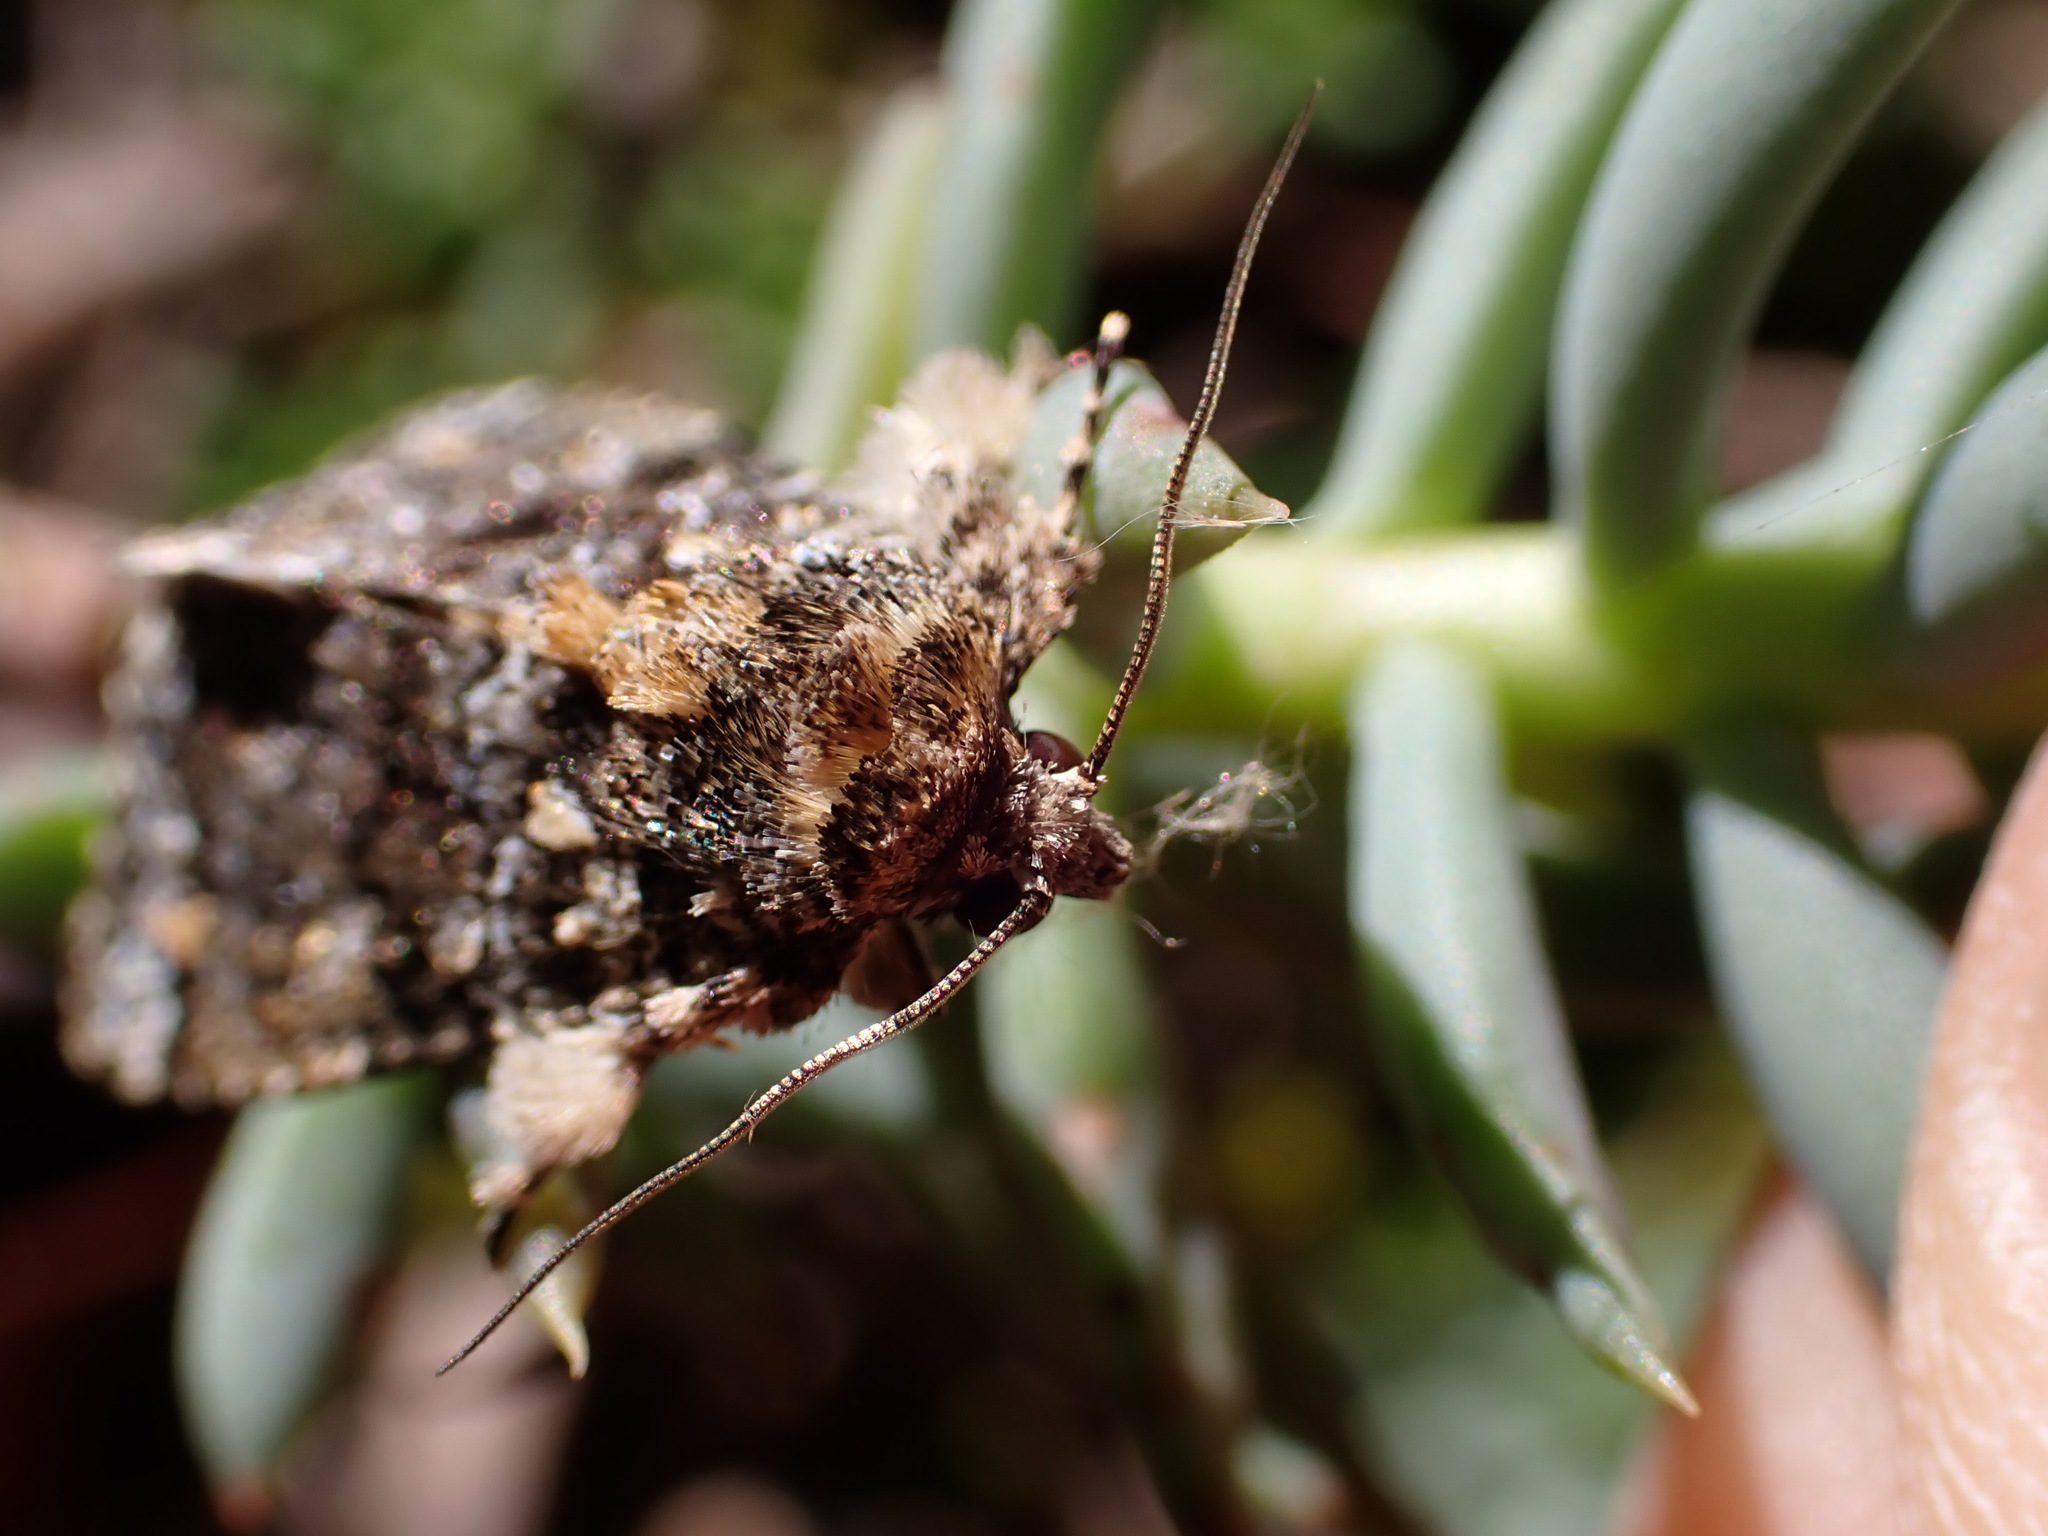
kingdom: Animalia
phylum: Arthropoda
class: Insecta
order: Lepidoptera
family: Noctuidae
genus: Callopistria
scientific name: Callopistria latreillei
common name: Latreille's latin
